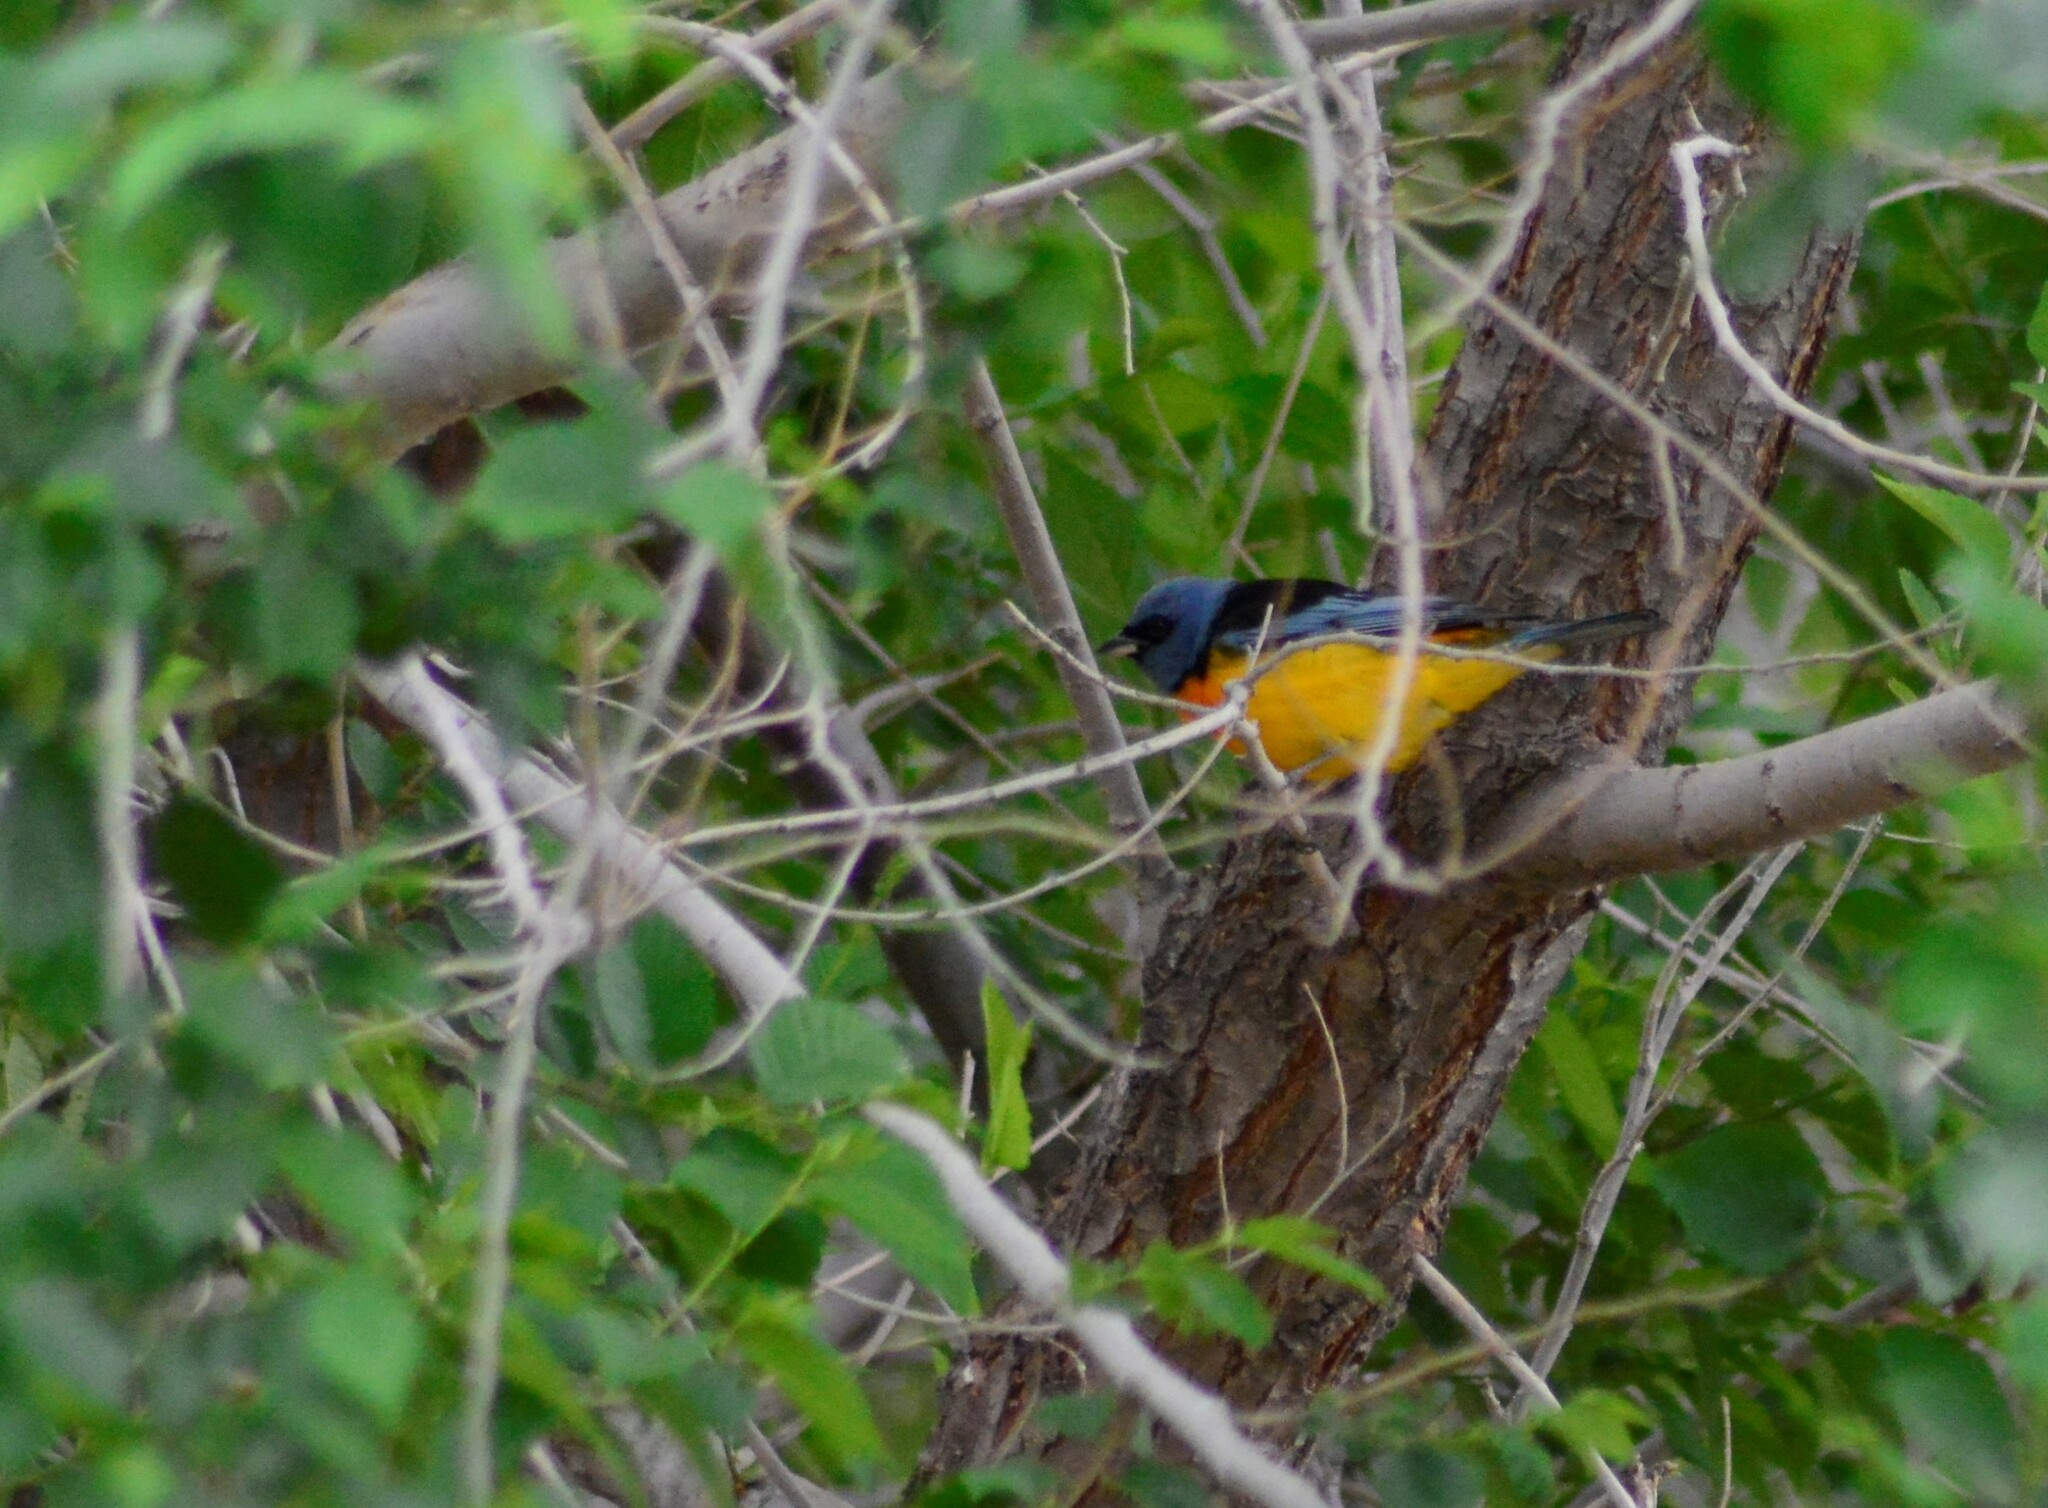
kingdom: Animalia
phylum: Chordata
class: Aves
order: Passeriformes
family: Thraupidae
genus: Rauenia
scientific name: Rauenia bonariensis
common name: Blue-and-yellow tanager
